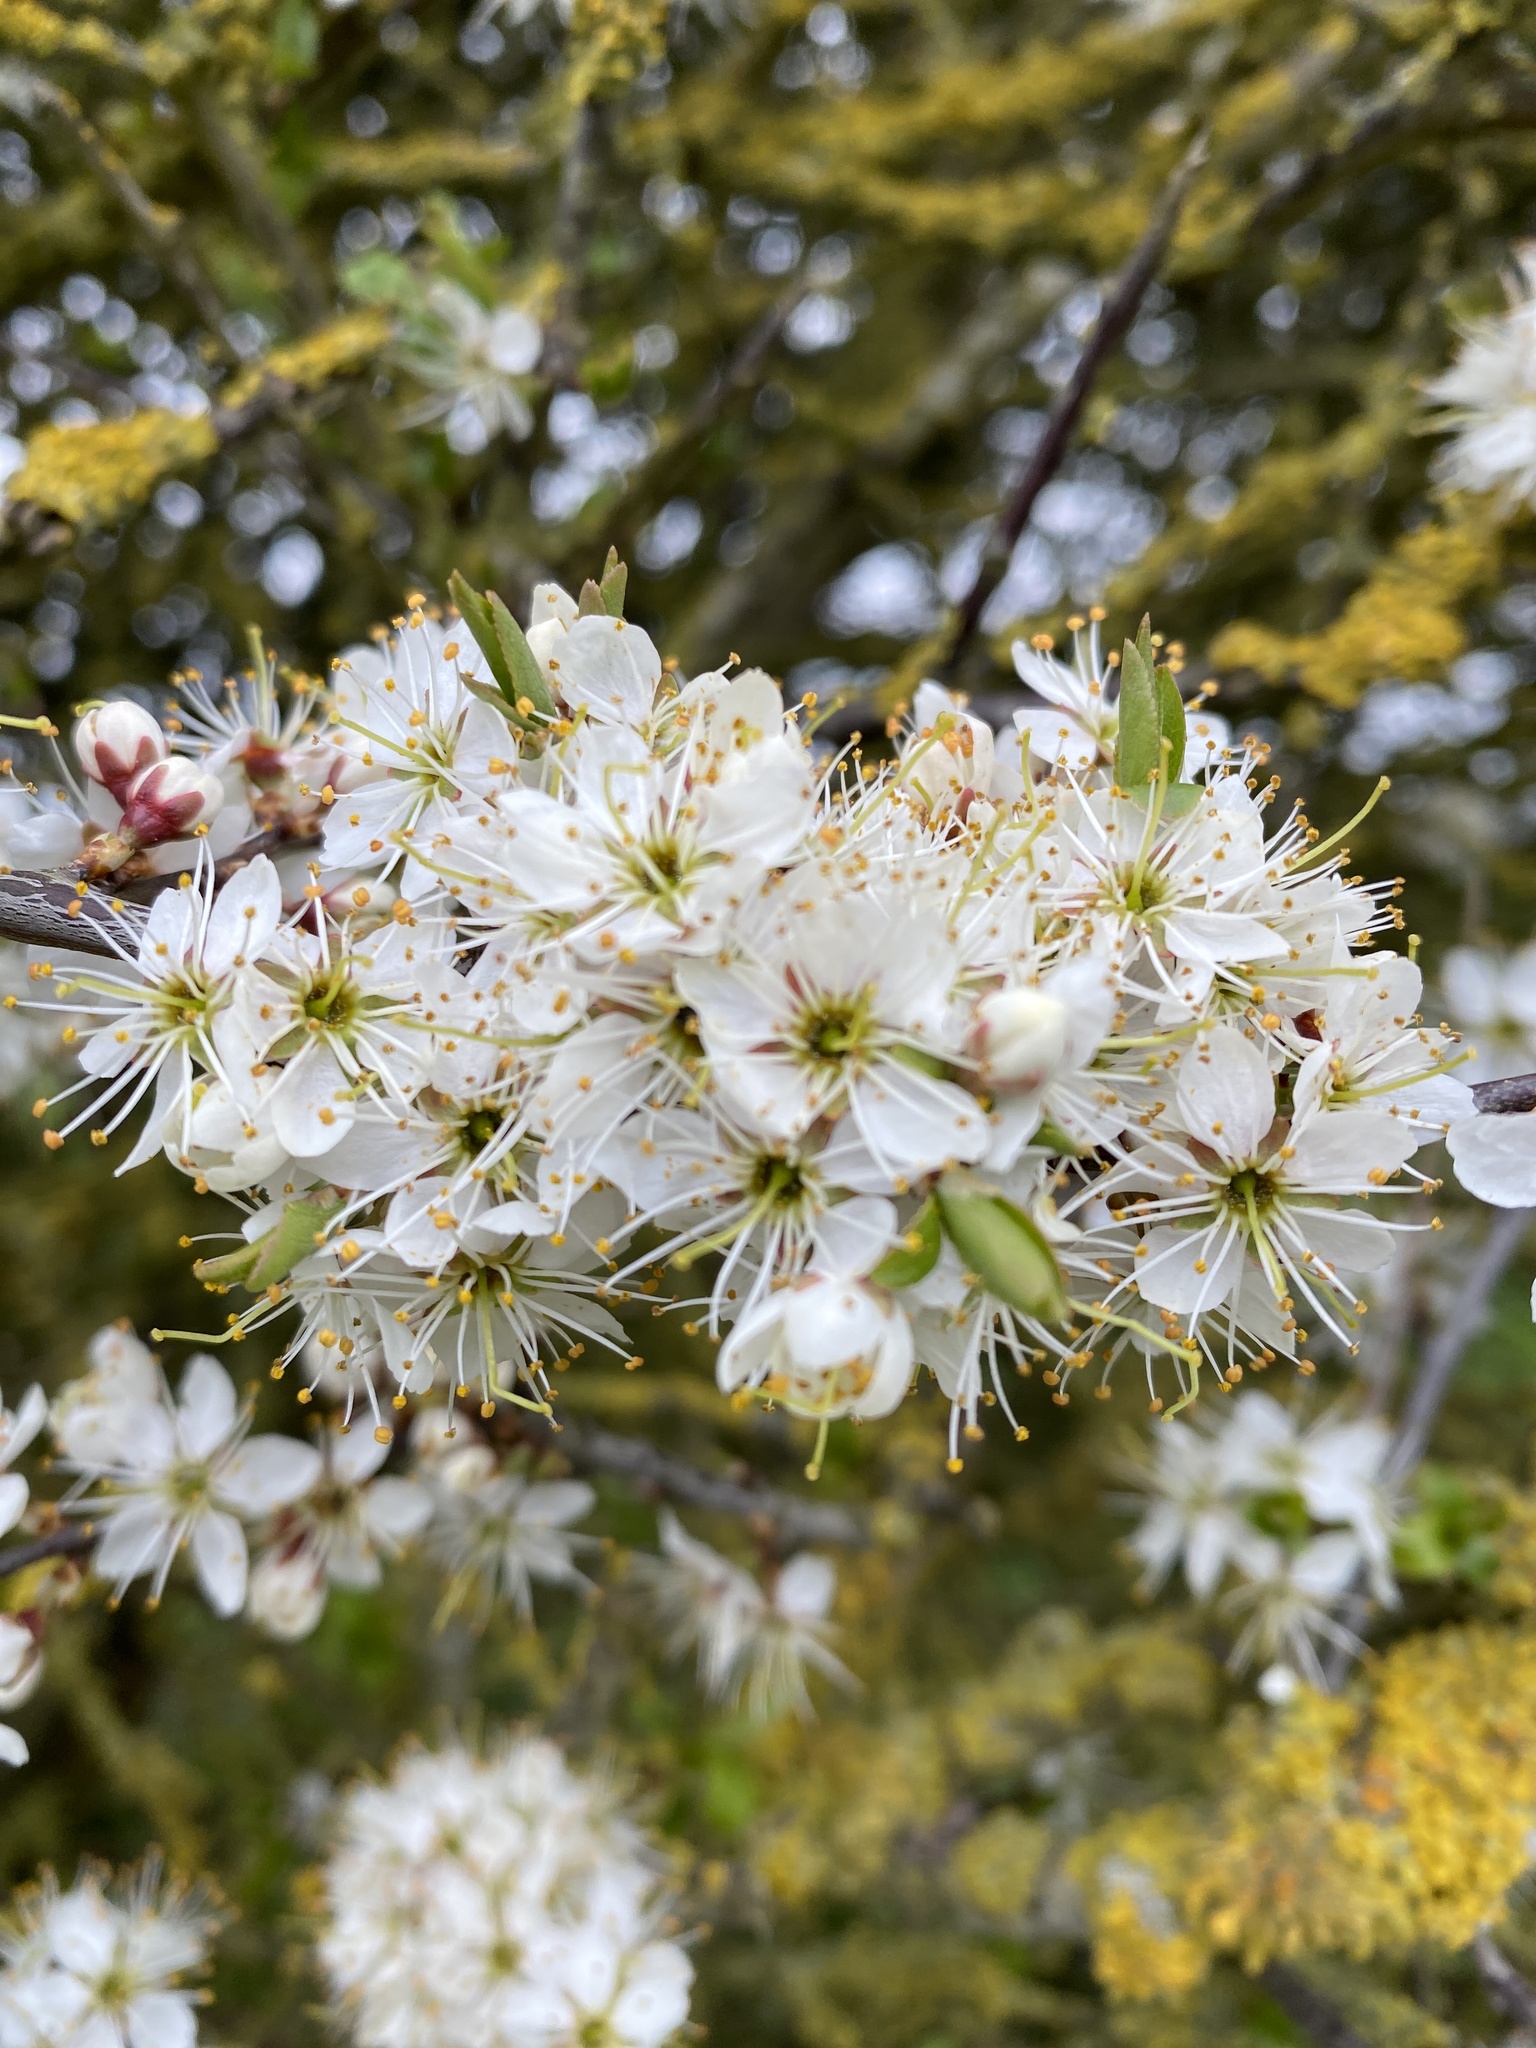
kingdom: Plantae
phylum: Tracheophyta
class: Magnoliopsida
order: Rosales
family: Rosaceae
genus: Prunus
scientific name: Prunus spinosa
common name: Blackthorn
